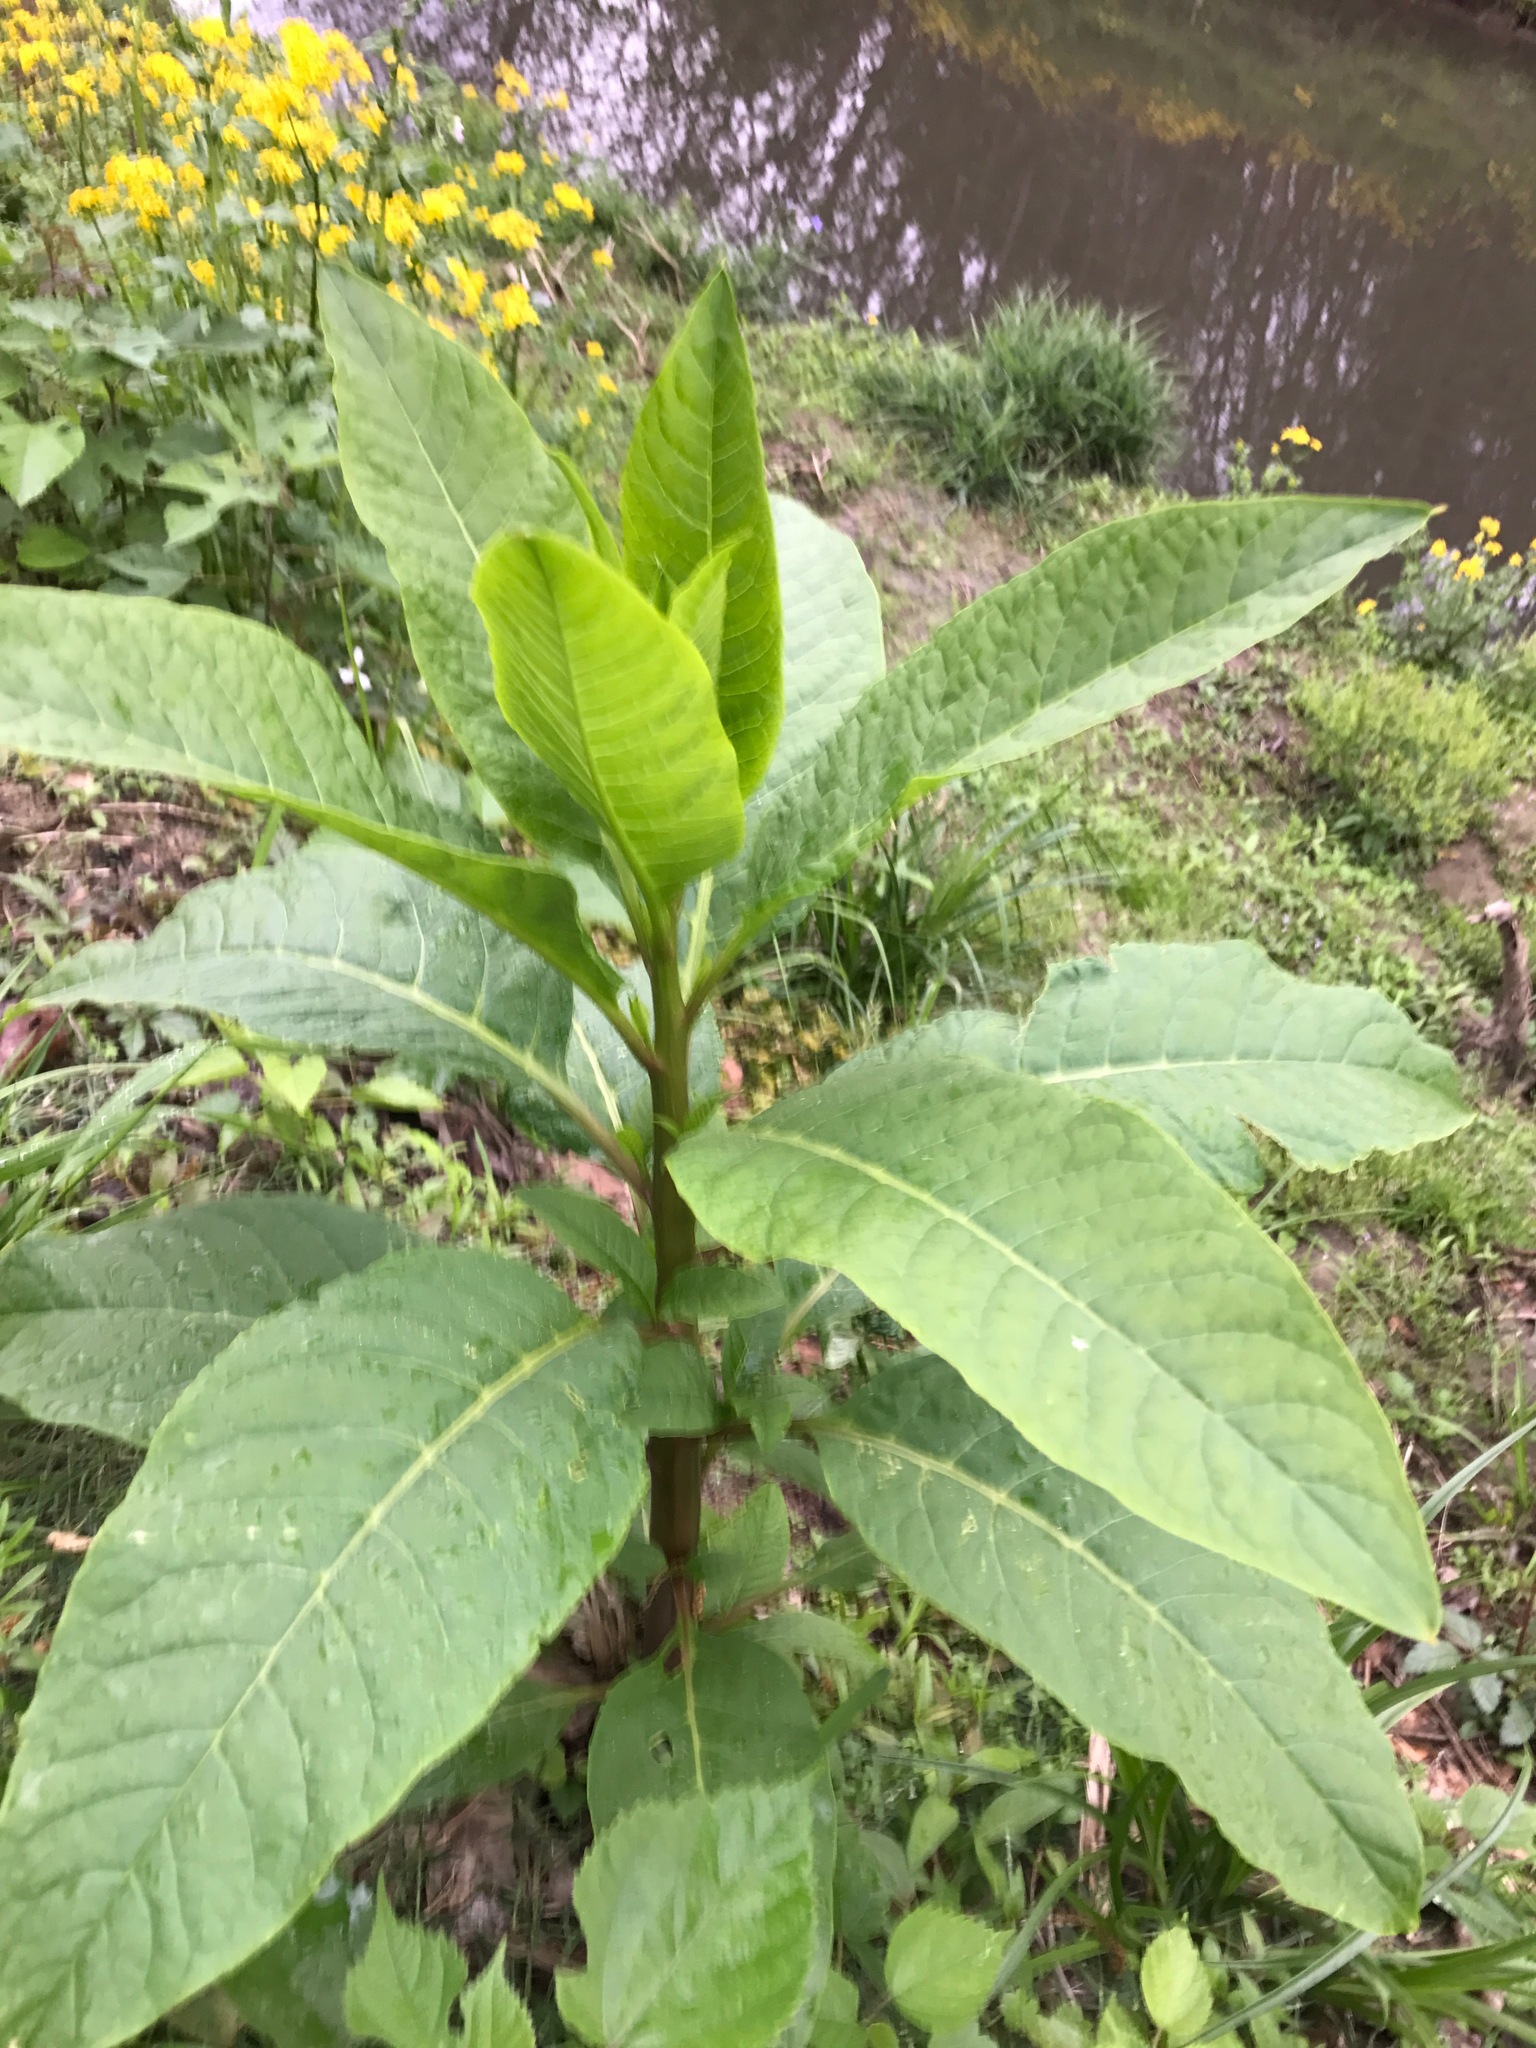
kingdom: Plantae
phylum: Tracheophyta
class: Magnoliopsida
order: Caryophyllales
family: Phytolaccaceae
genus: Phytolacca
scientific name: Phytolacca americana
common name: American pokeweed
